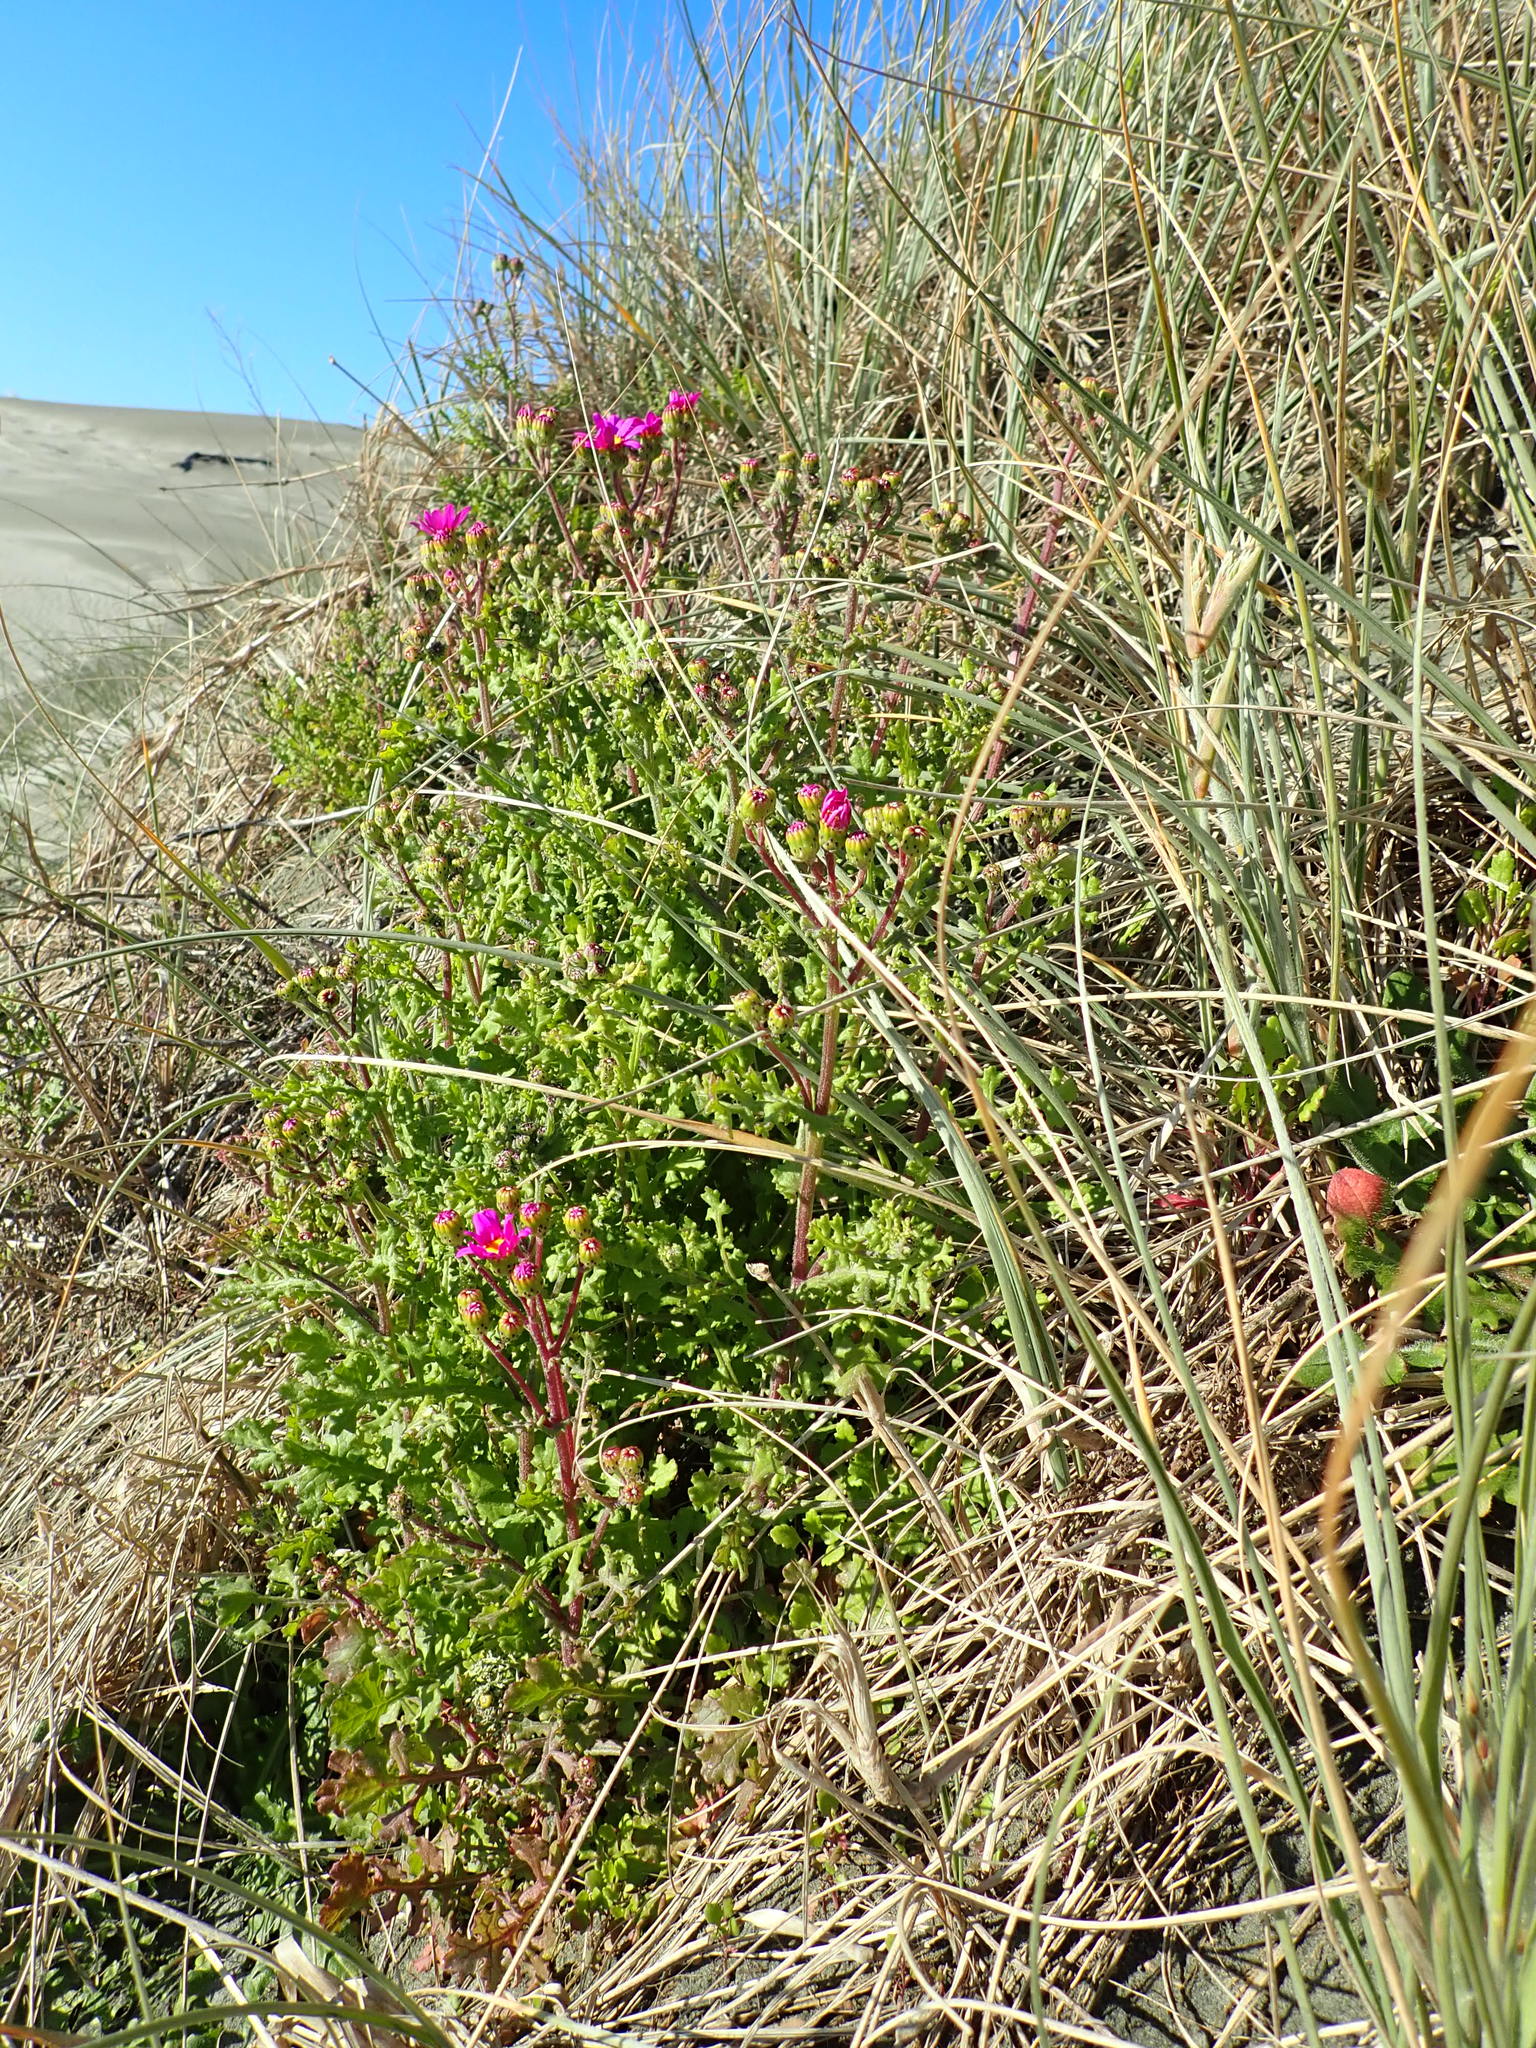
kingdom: Plantae
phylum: Tracheophyta
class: Magnoliopsida
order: Asterales
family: Asteraceae
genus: Senecio
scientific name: Senecio elegans
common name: Purple groundsel
